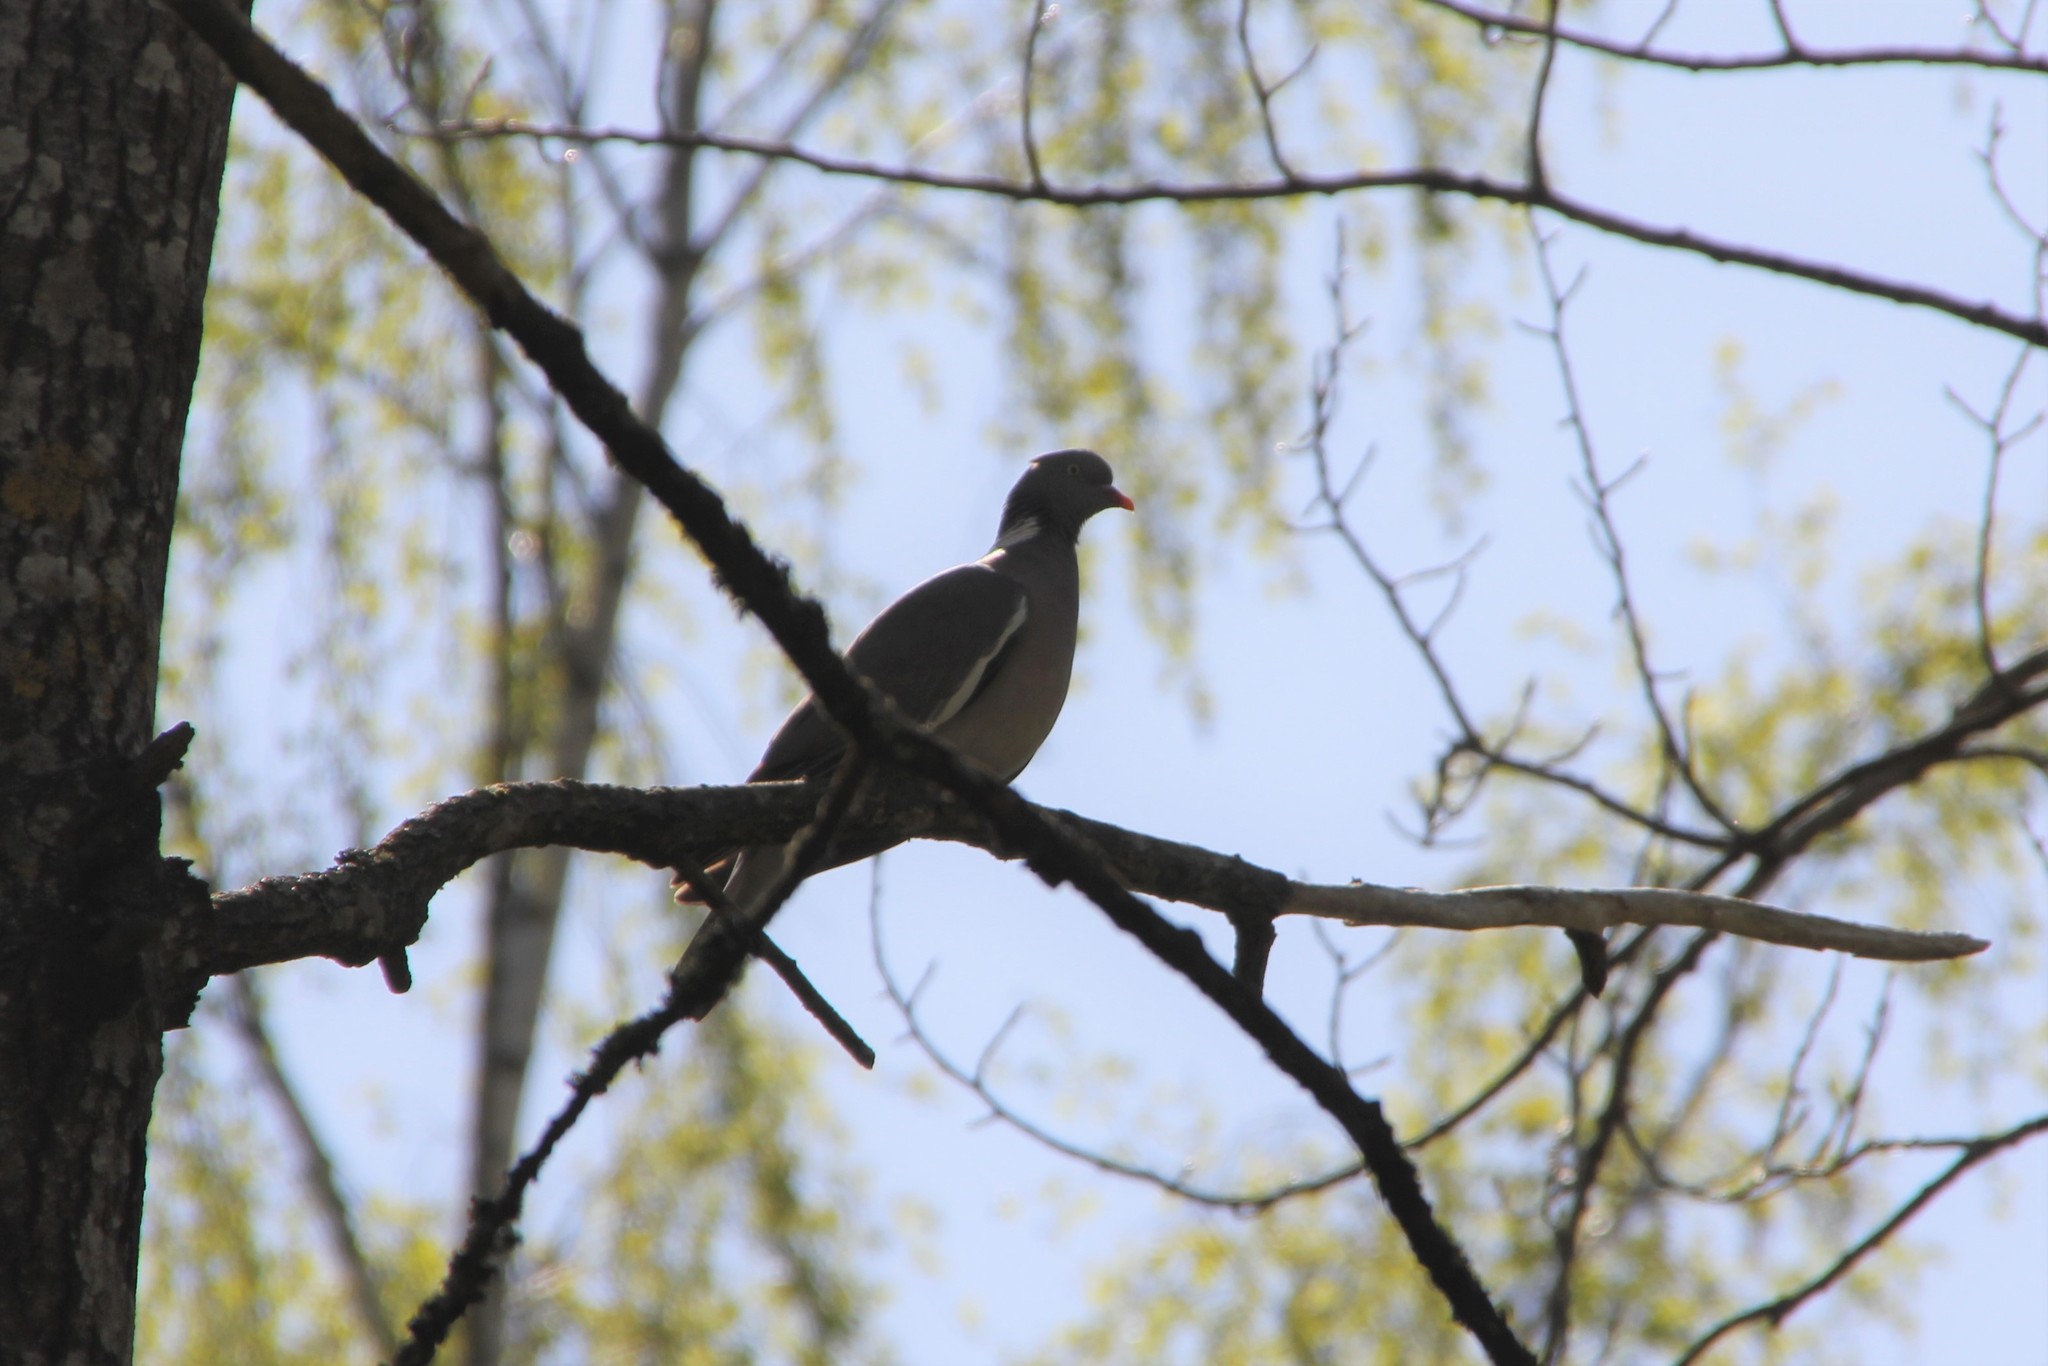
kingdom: Animalia
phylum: Chordata
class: Aves
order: Columbiformes
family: Columbidae
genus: Columba
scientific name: Columba palumbus
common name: Common wood pigeon
